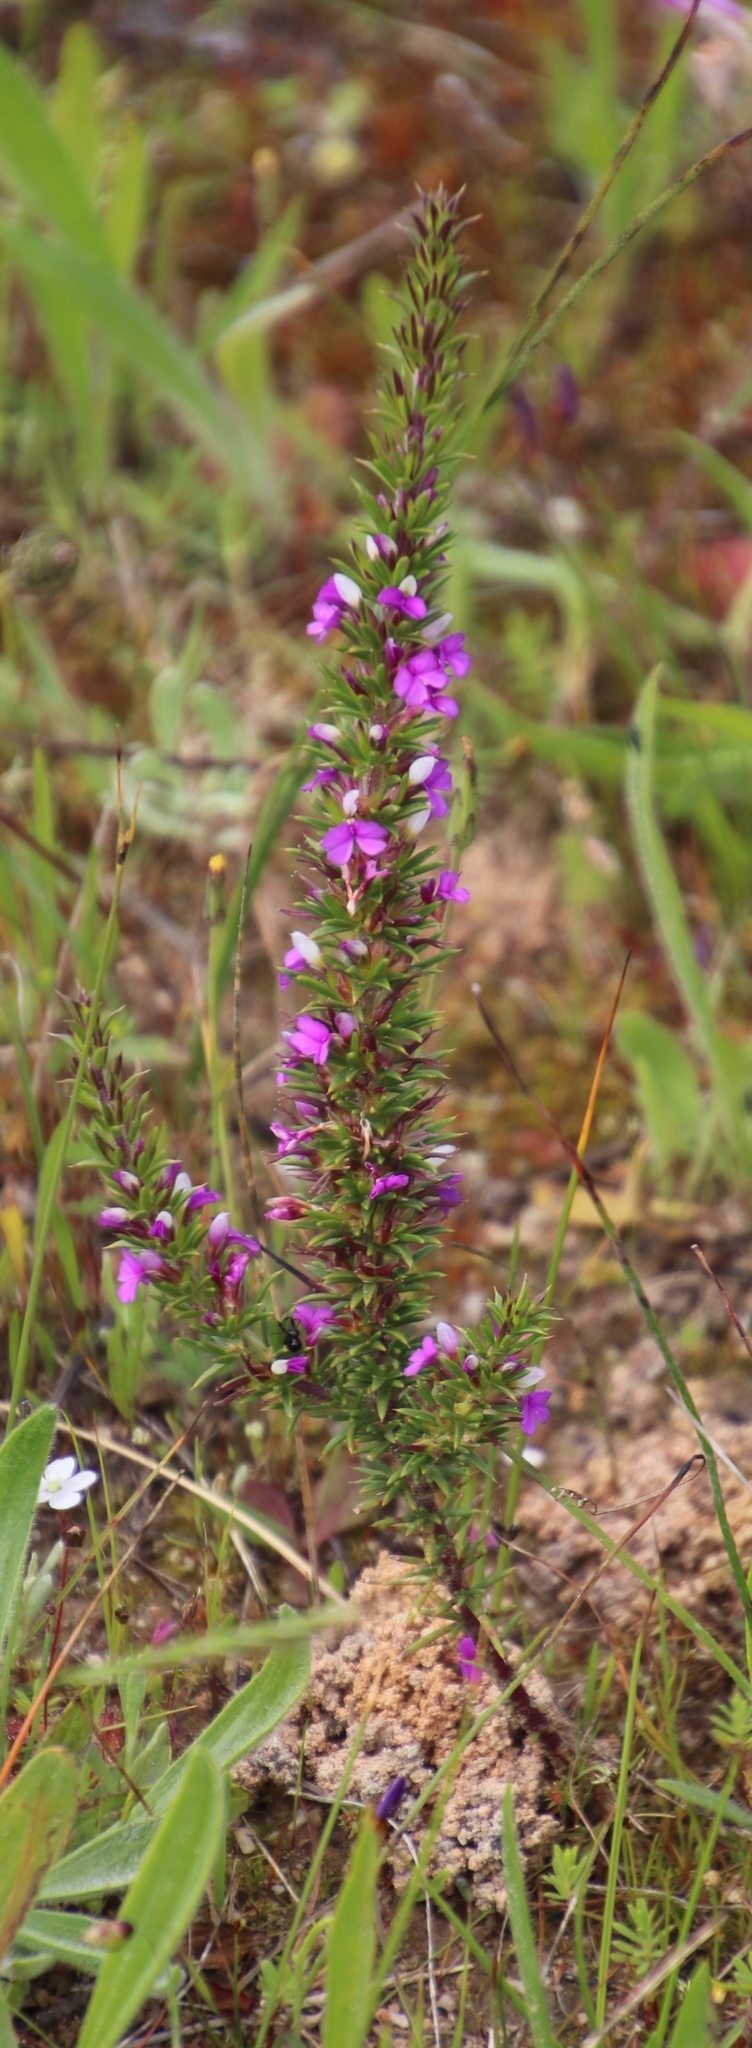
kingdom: Plantae
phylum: Tracheophyta
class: Magnoliopsida
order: Fabales
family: Polygalaceae
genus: Muraltia
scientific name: Muraltia heisteria
